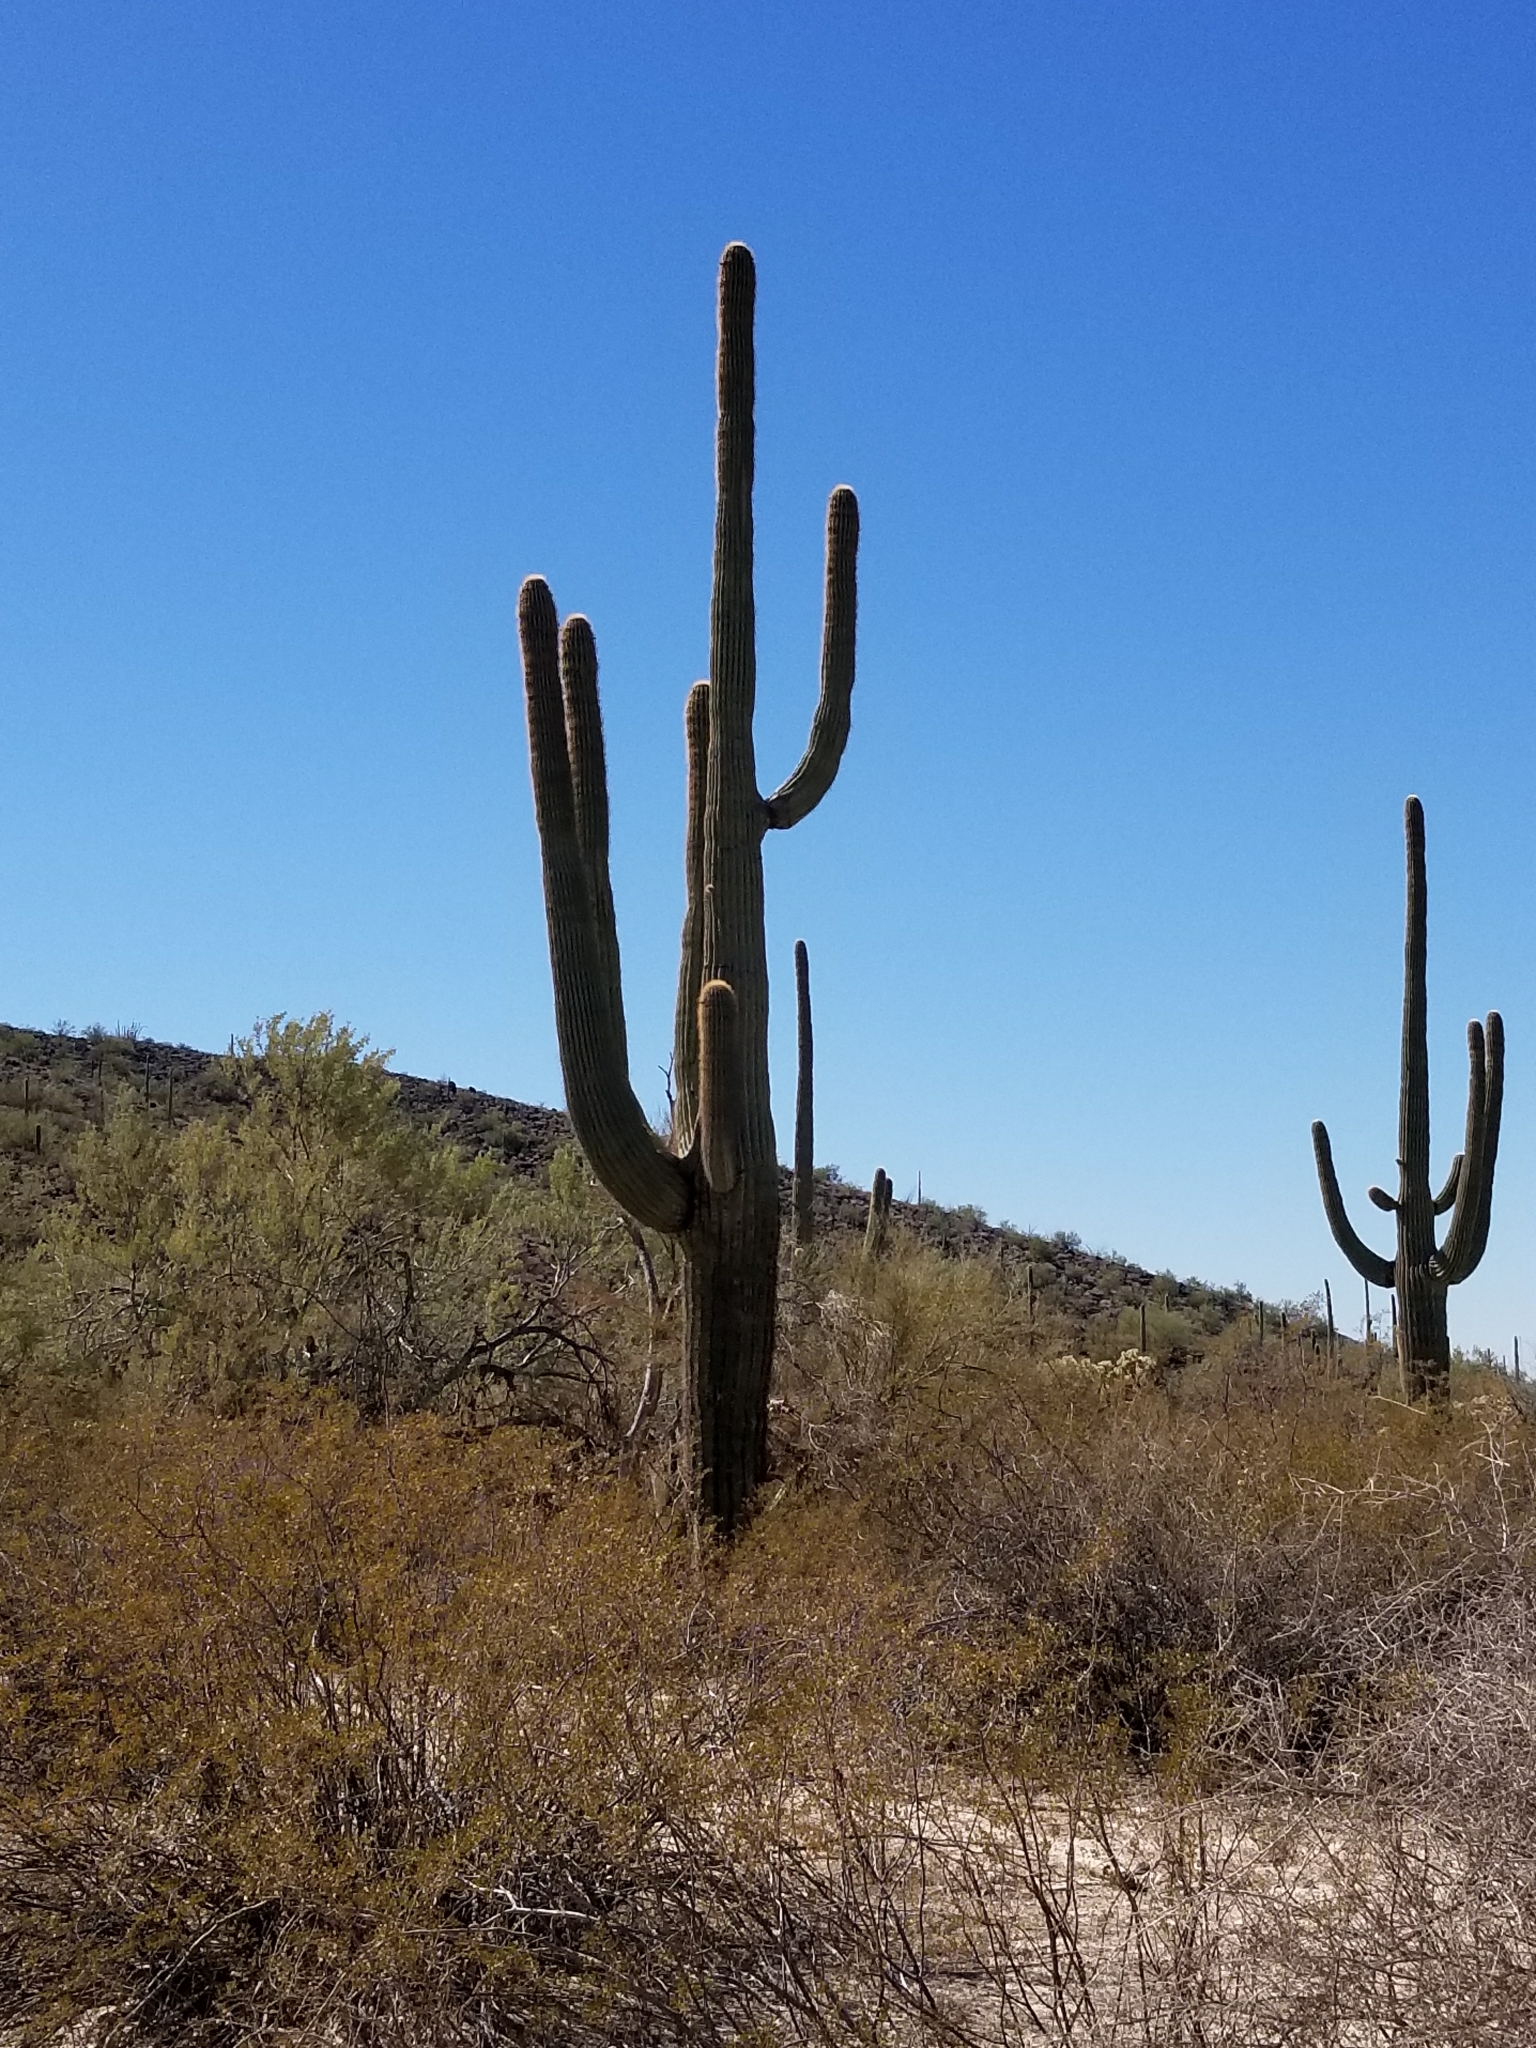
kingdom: Plantae
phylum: Tracheophyta
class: Magnoliopsida
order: Caryophyllales
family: Cactaceae
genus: Carnegiea
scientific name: Carnegiea gigantea
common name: Saguaro
